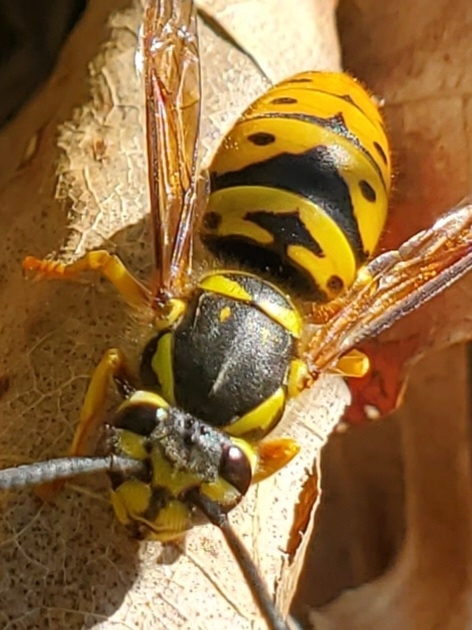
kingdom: Animalia
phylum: Arthropoda
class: Insecta
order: Hymenoptera
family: Vespidae
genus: Vespula
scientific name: Vespula maculifrons
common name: Eastern yellowjacket
